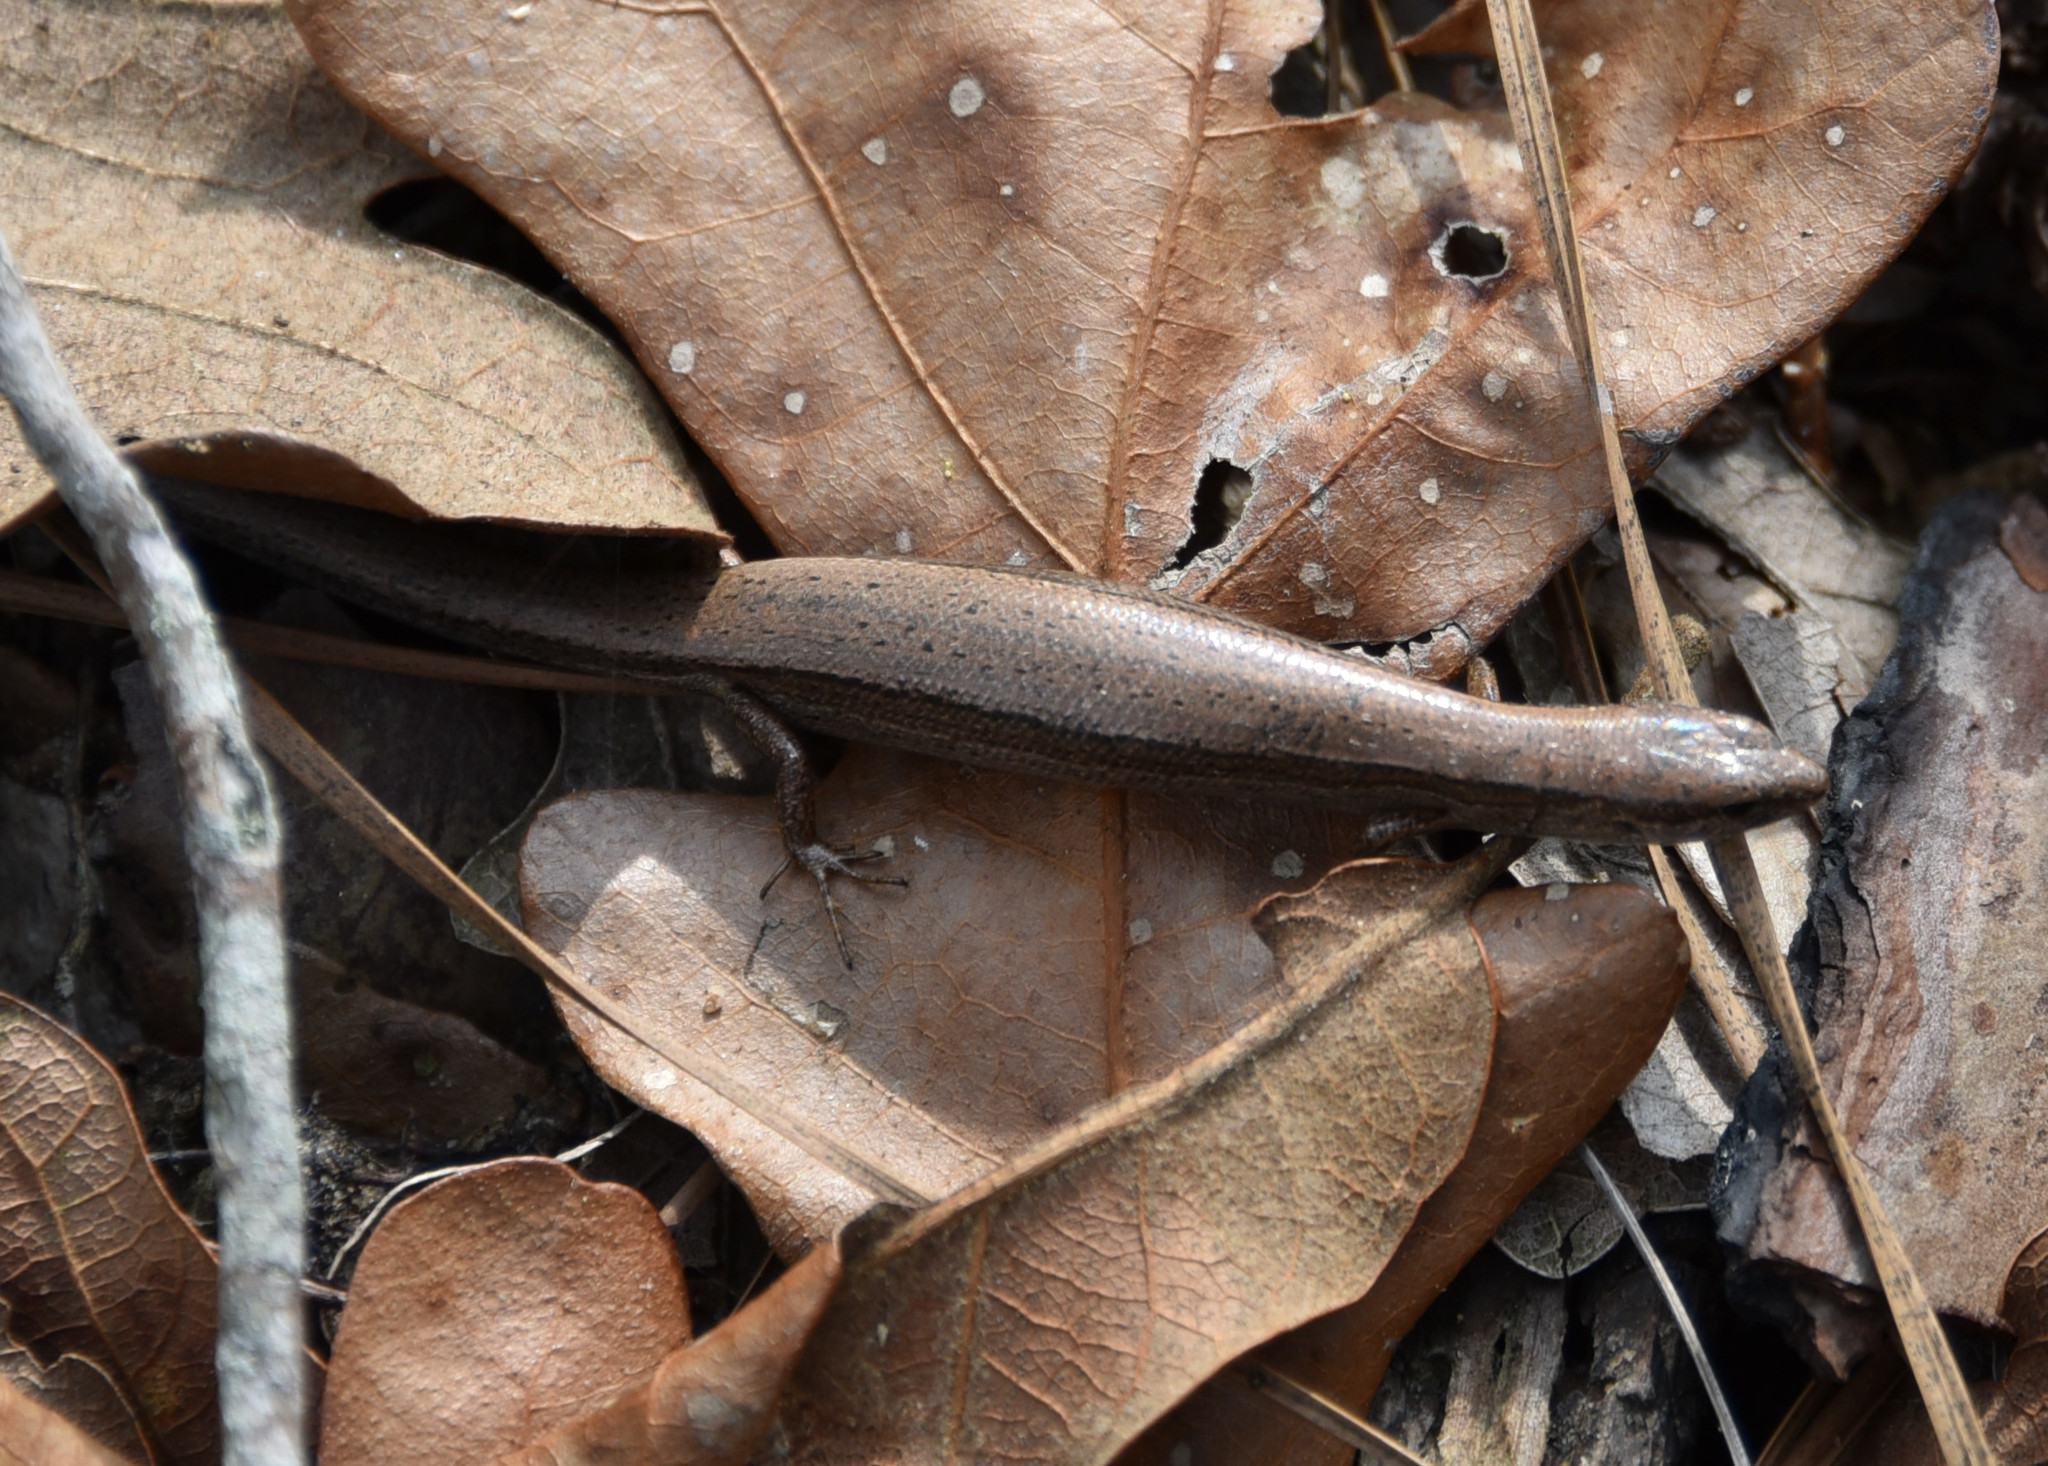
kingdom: Animalia
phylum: Chordata
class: Squamata
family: Scincidae
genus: Scincella
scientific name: Scincella lateralis
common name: Ground skink
